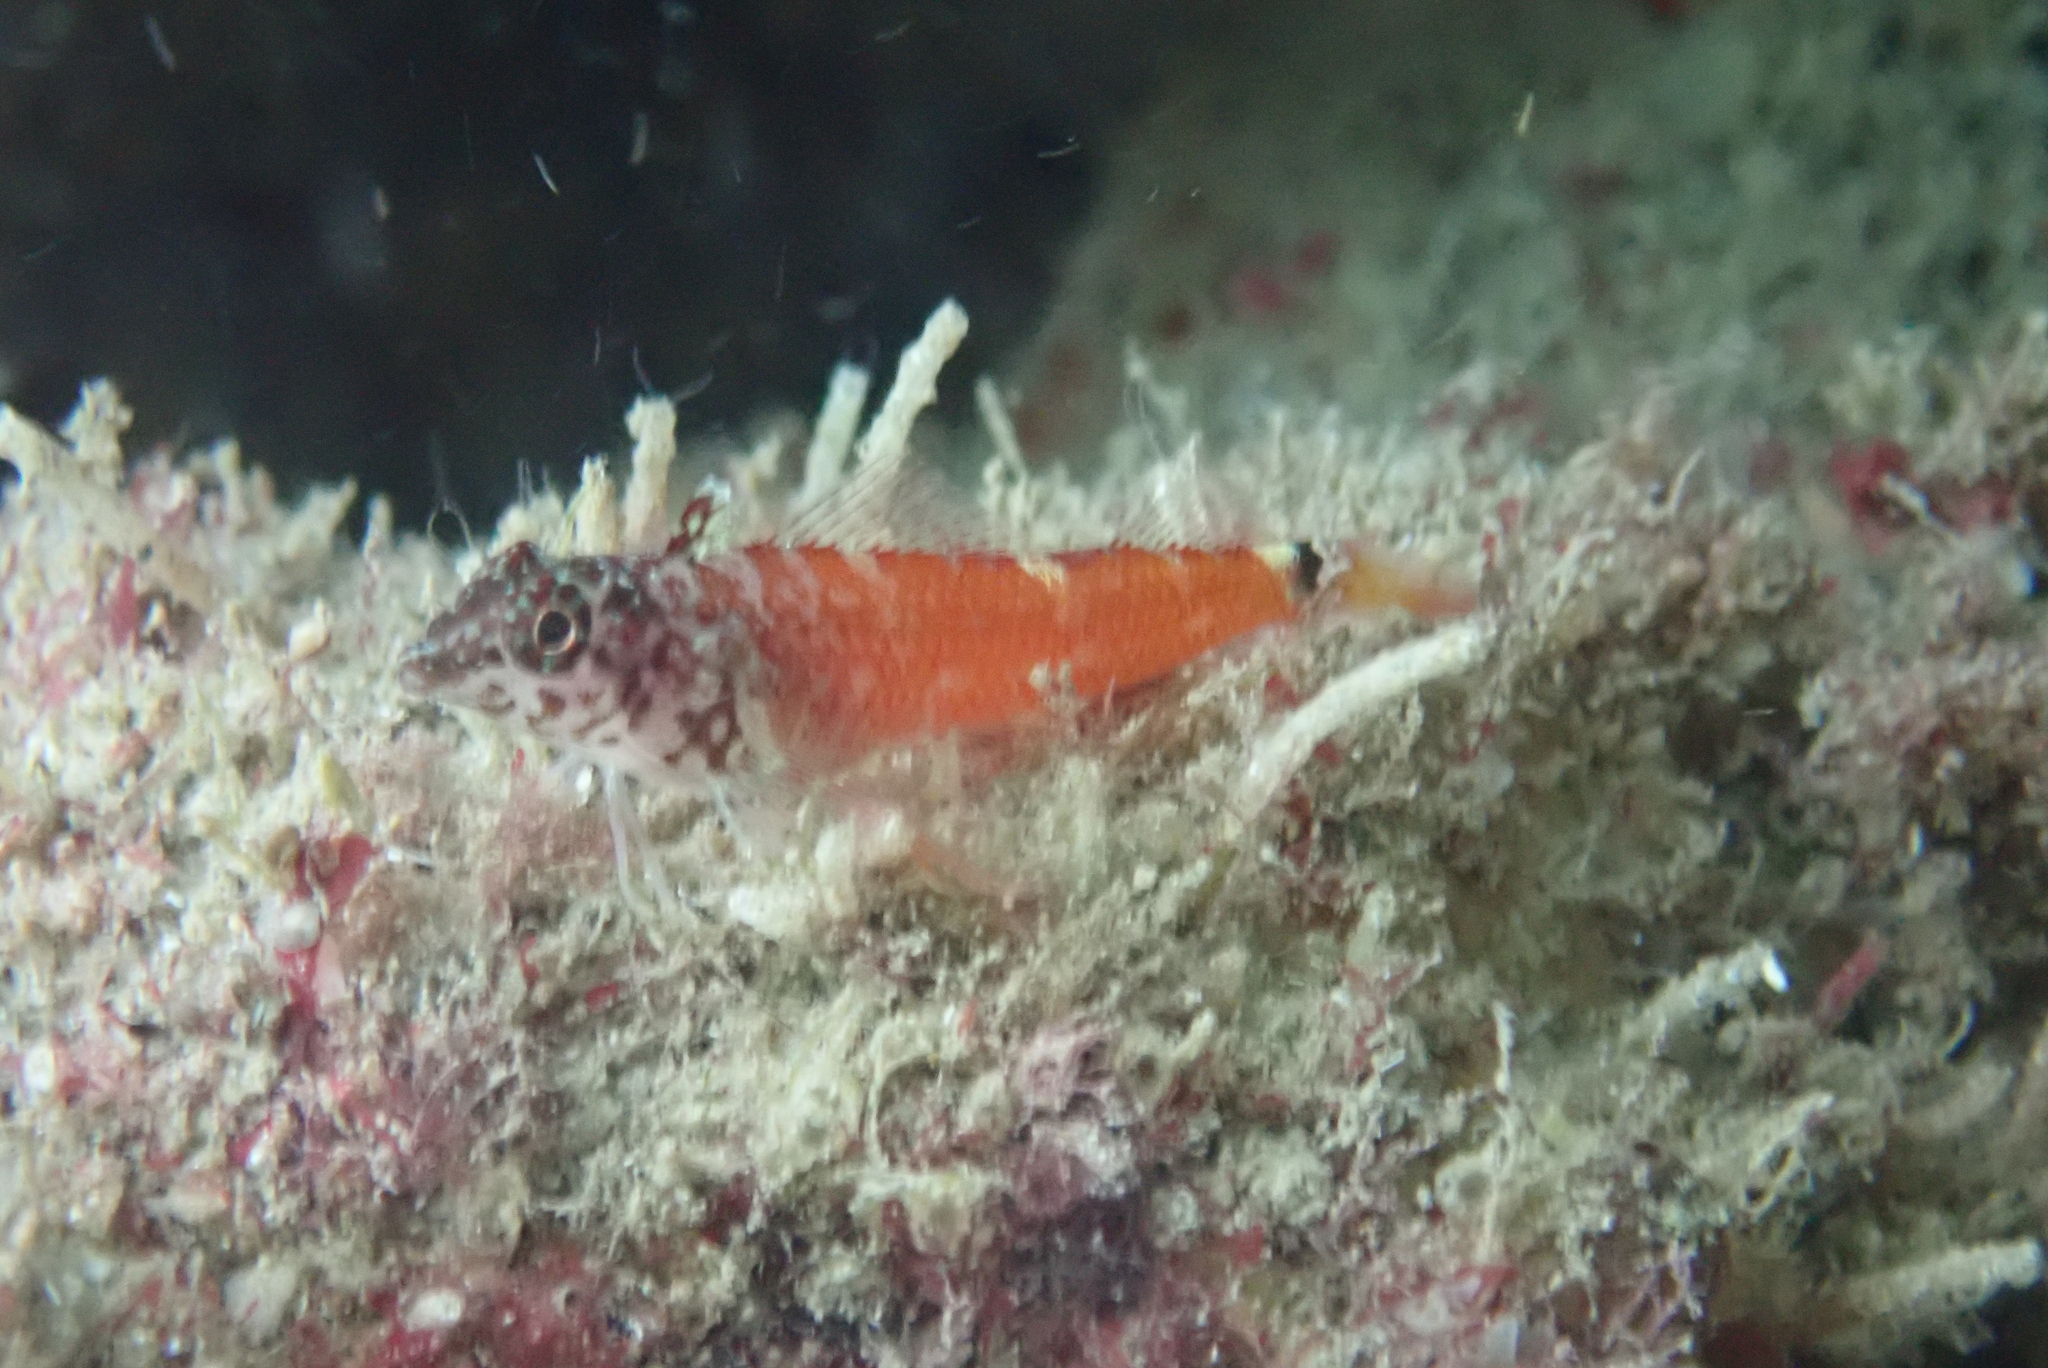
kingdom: Animalia
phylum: Chordata
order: Perciformes
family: Tripterygiidae
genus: Tripterygion
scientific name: Tripterygion melanurum
